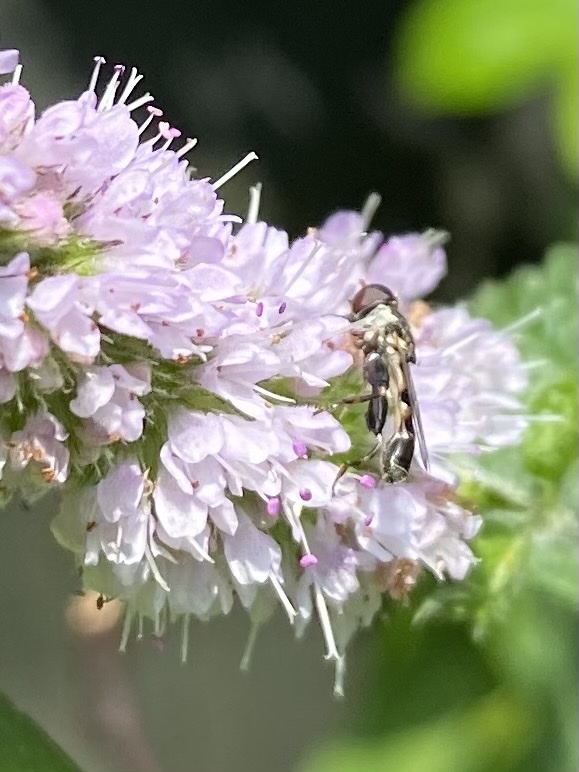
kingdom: Animalia
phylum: Arthropoda
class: Insecta
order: Diptera
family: Syrphidae
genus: Syritta
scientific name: Syritta pipiens
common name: Hover fly
